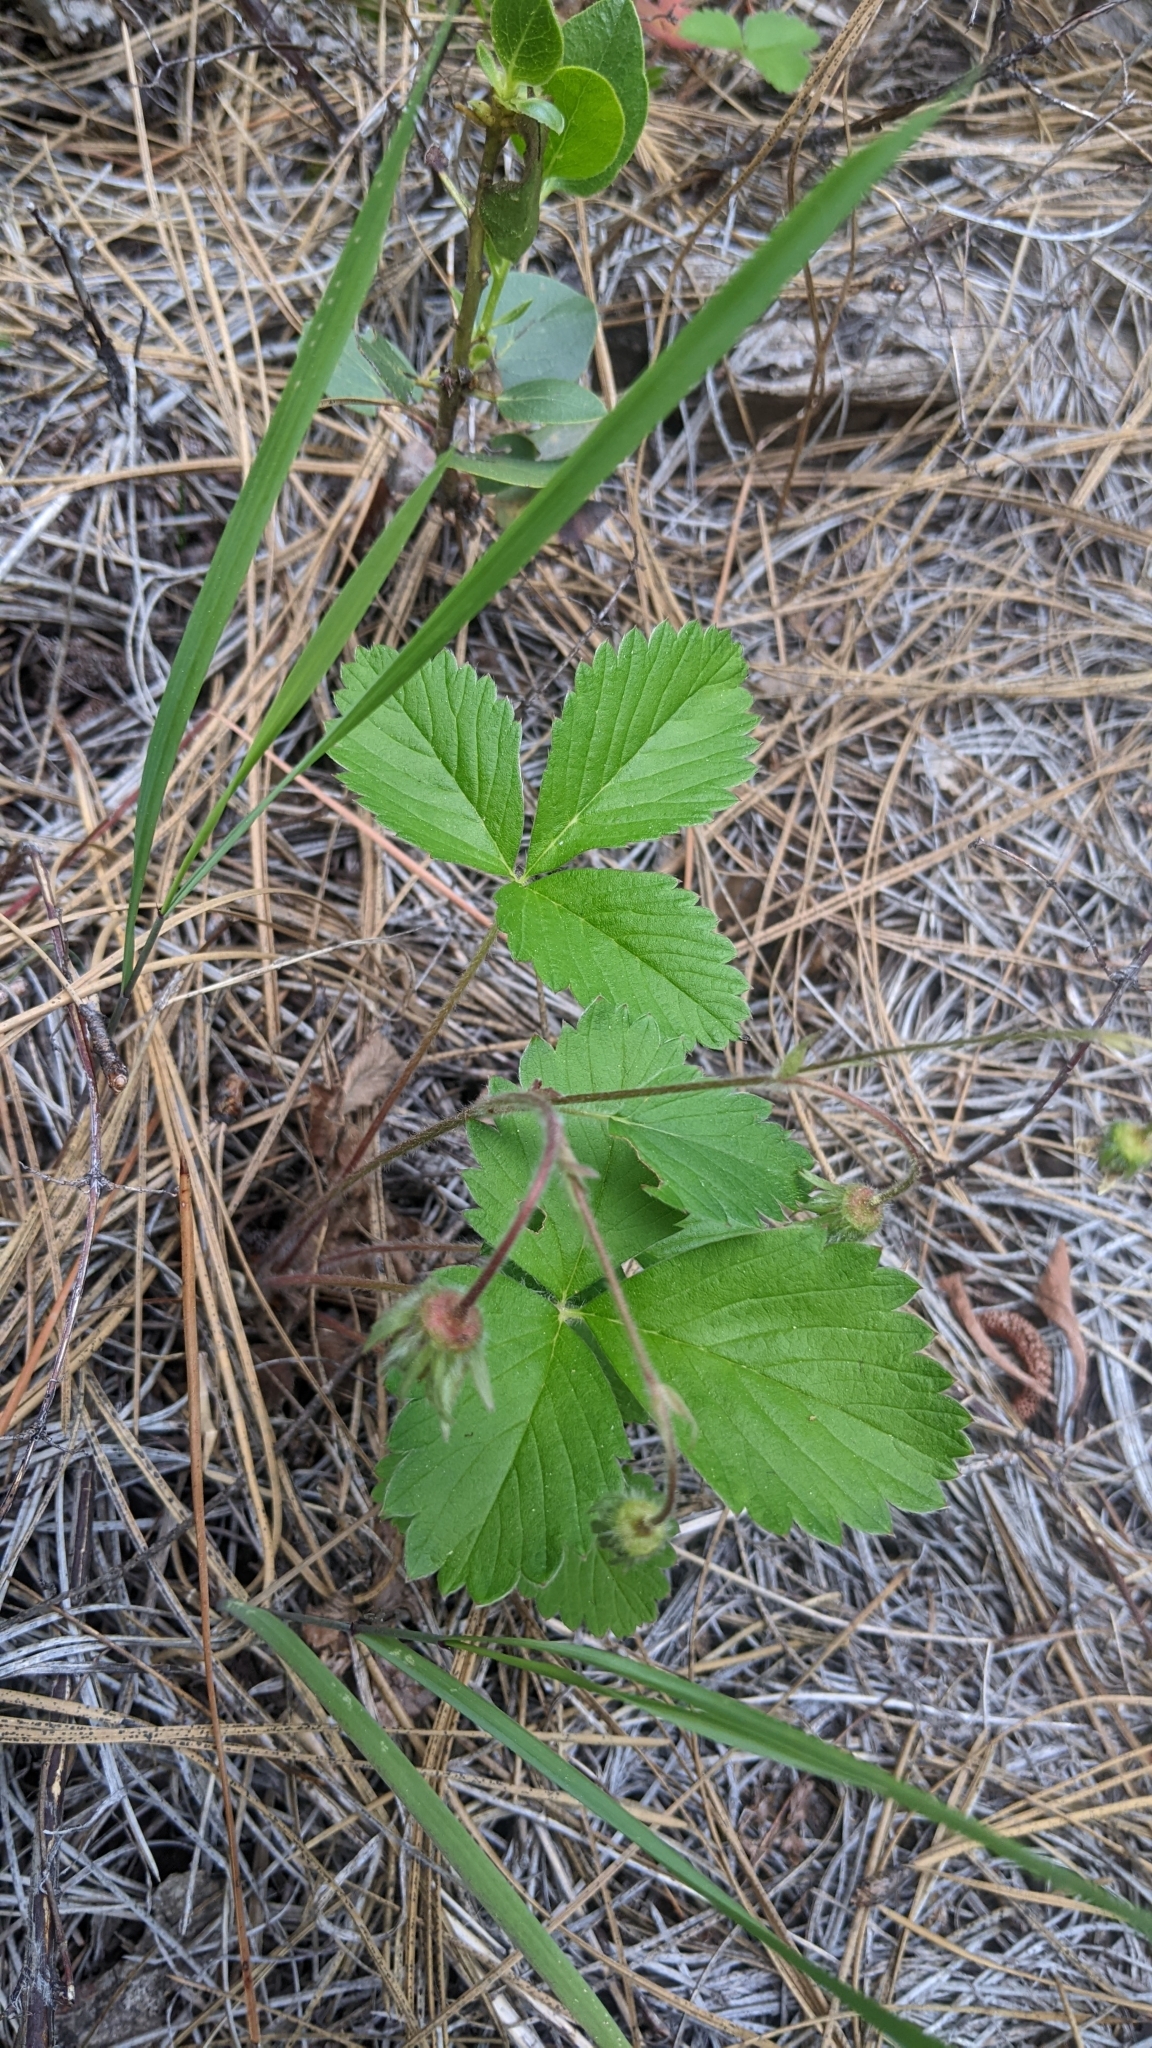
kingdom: Plantae
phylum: Tracheophyta
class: Magnoliopsida
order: Rosales
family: Rosaceae
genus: Fragaria
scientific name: Fragaria vesca
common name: Wild strawberry
